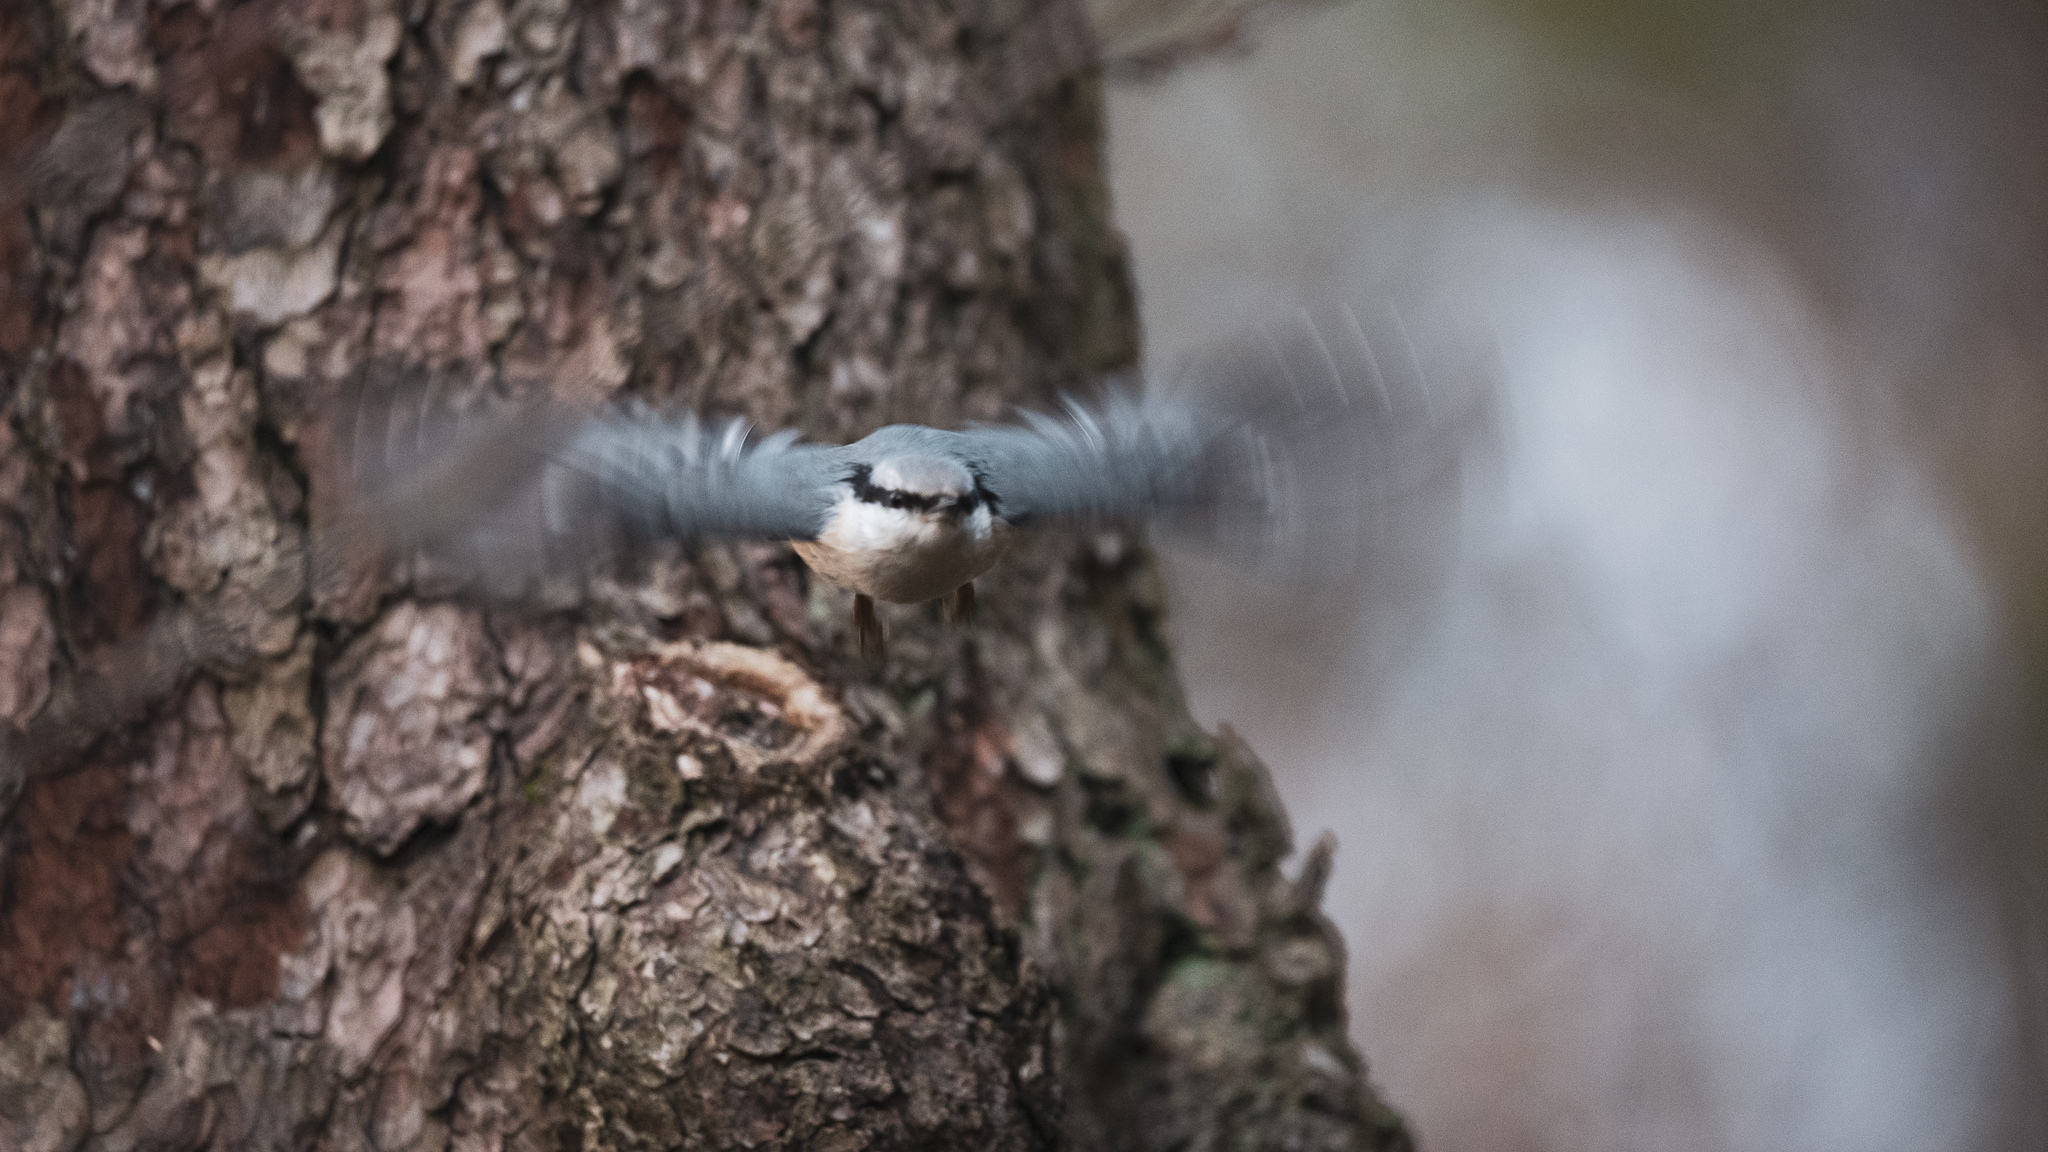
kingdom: Animalia
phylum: Chordata
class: Aves
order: Passeriformes
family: Sittidae
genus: Sitta
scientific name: Sitta europaea
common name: Eurasian nuthatch
